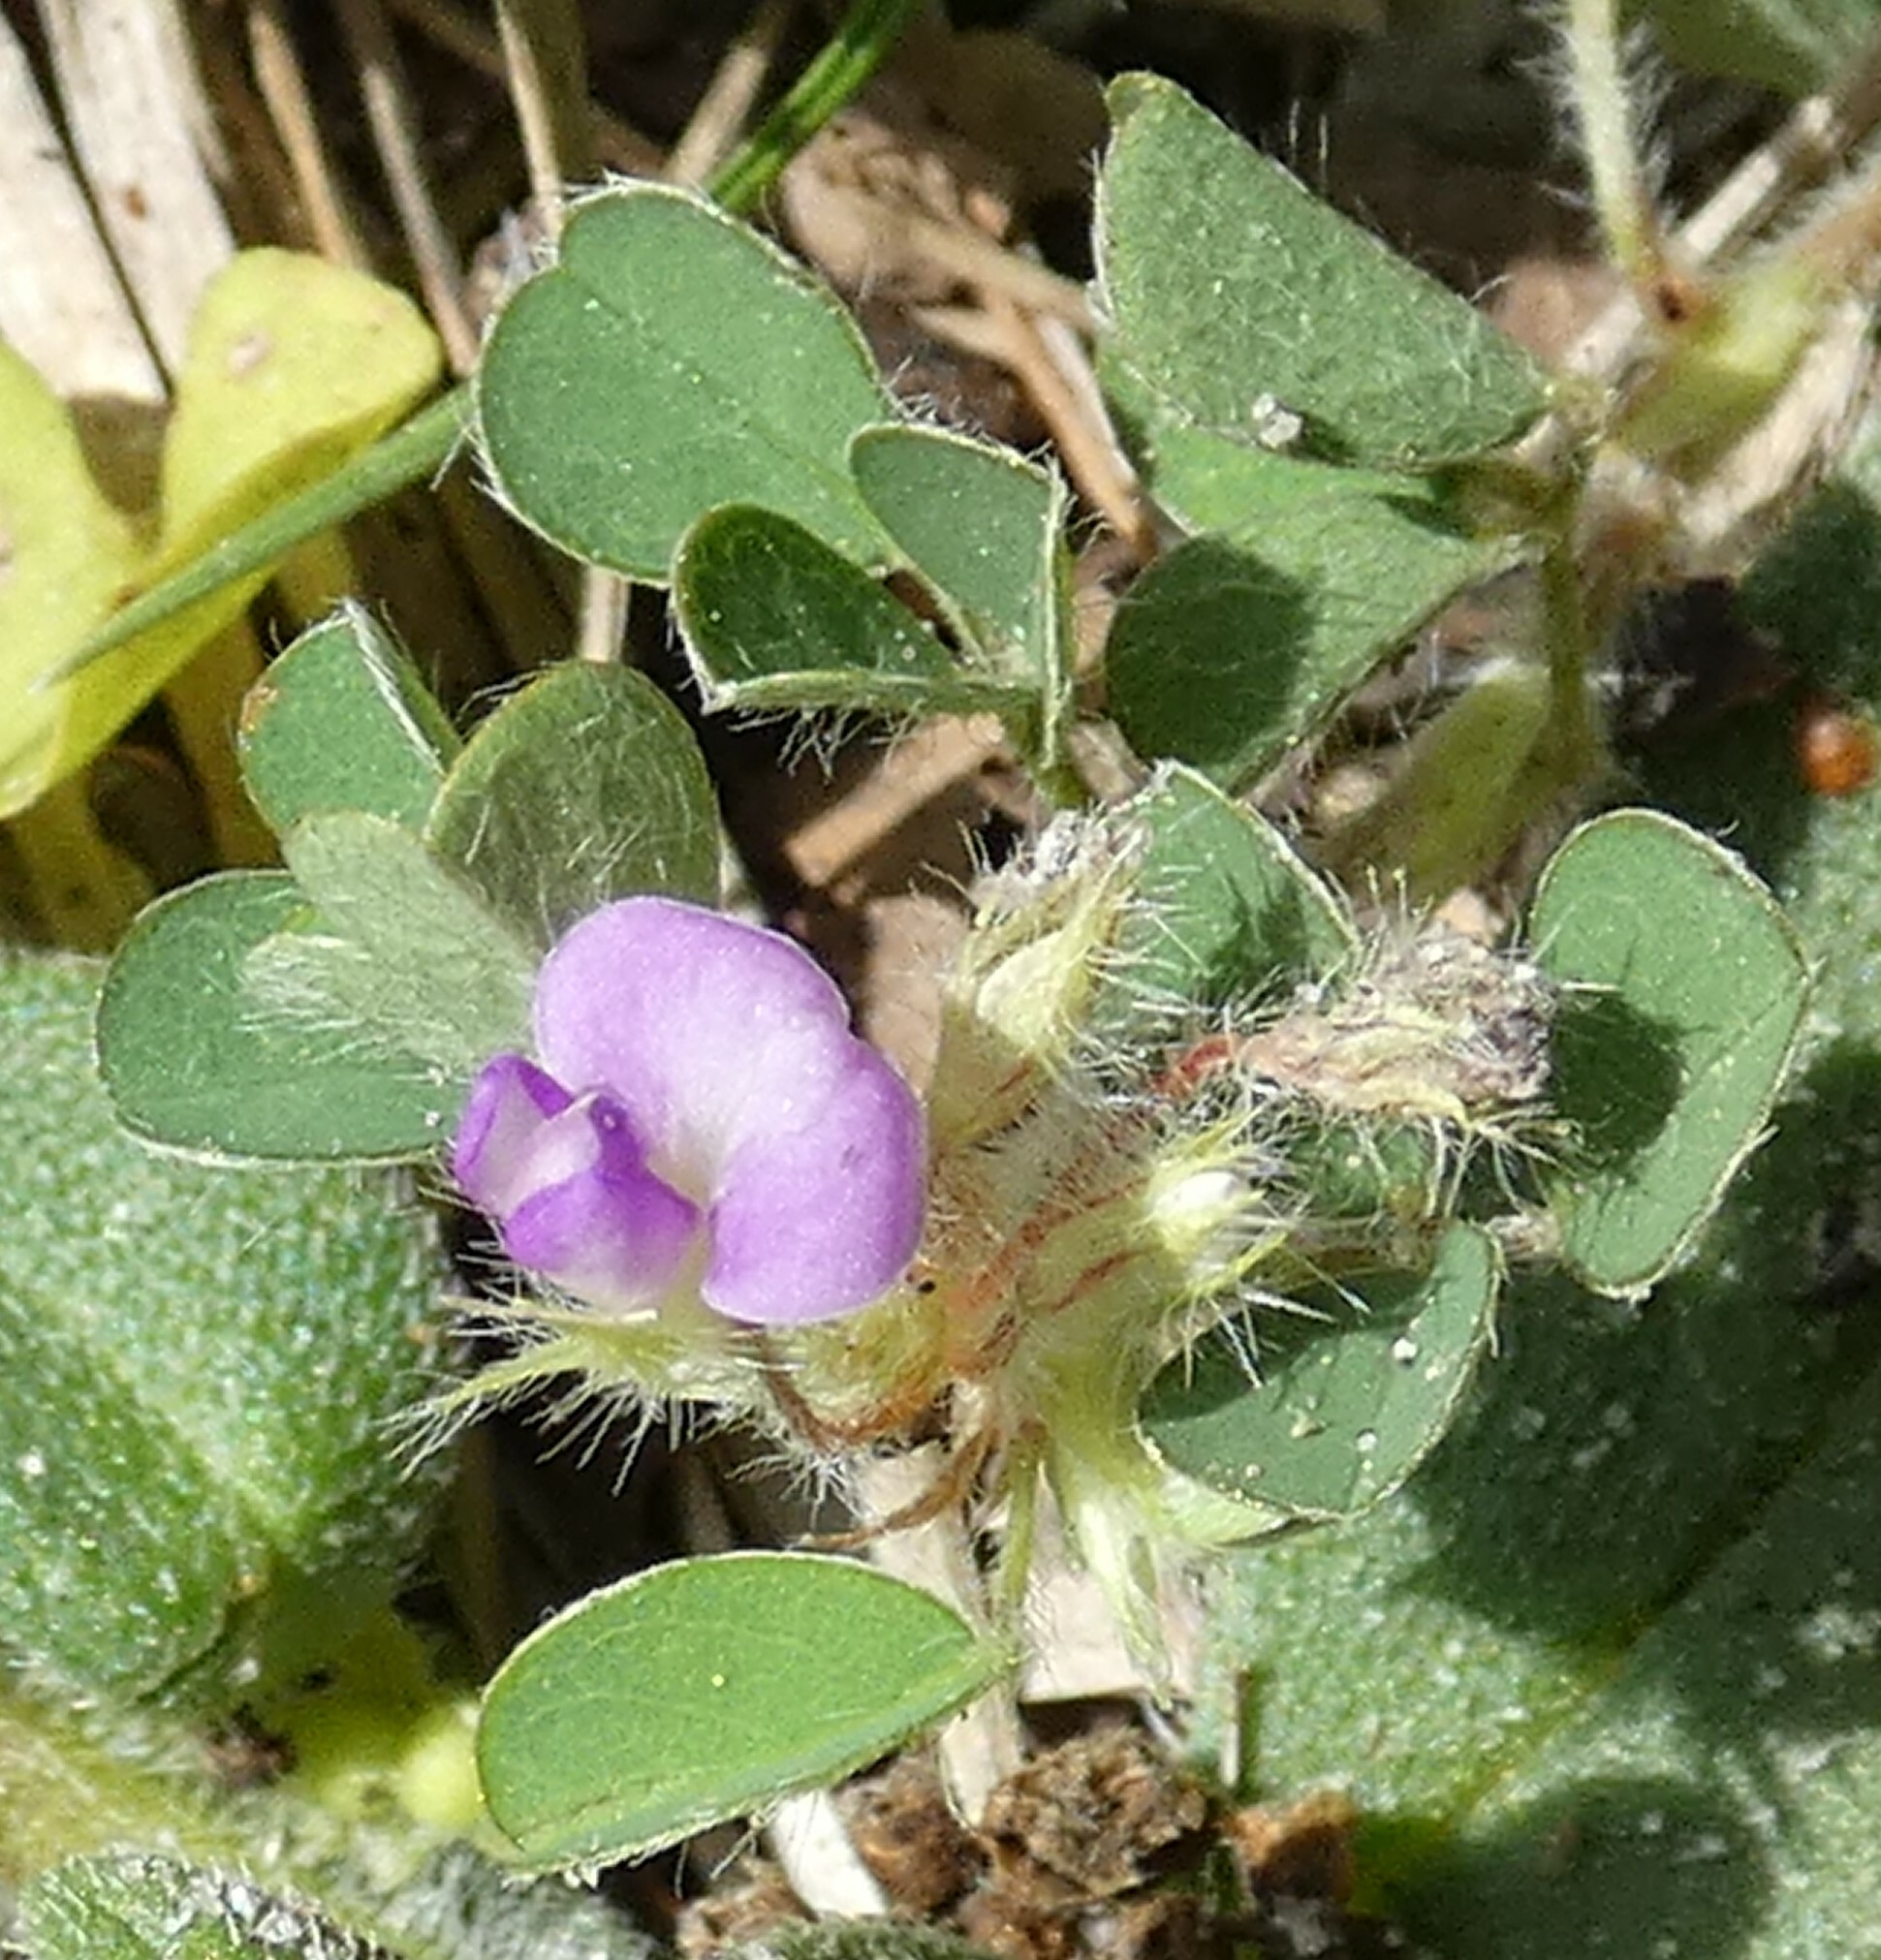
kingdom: Plantae
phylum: Tracheophyta
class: Magnoliopsida
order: Fabales
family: Fabaceae
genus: Grona
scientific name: Grona triflora
